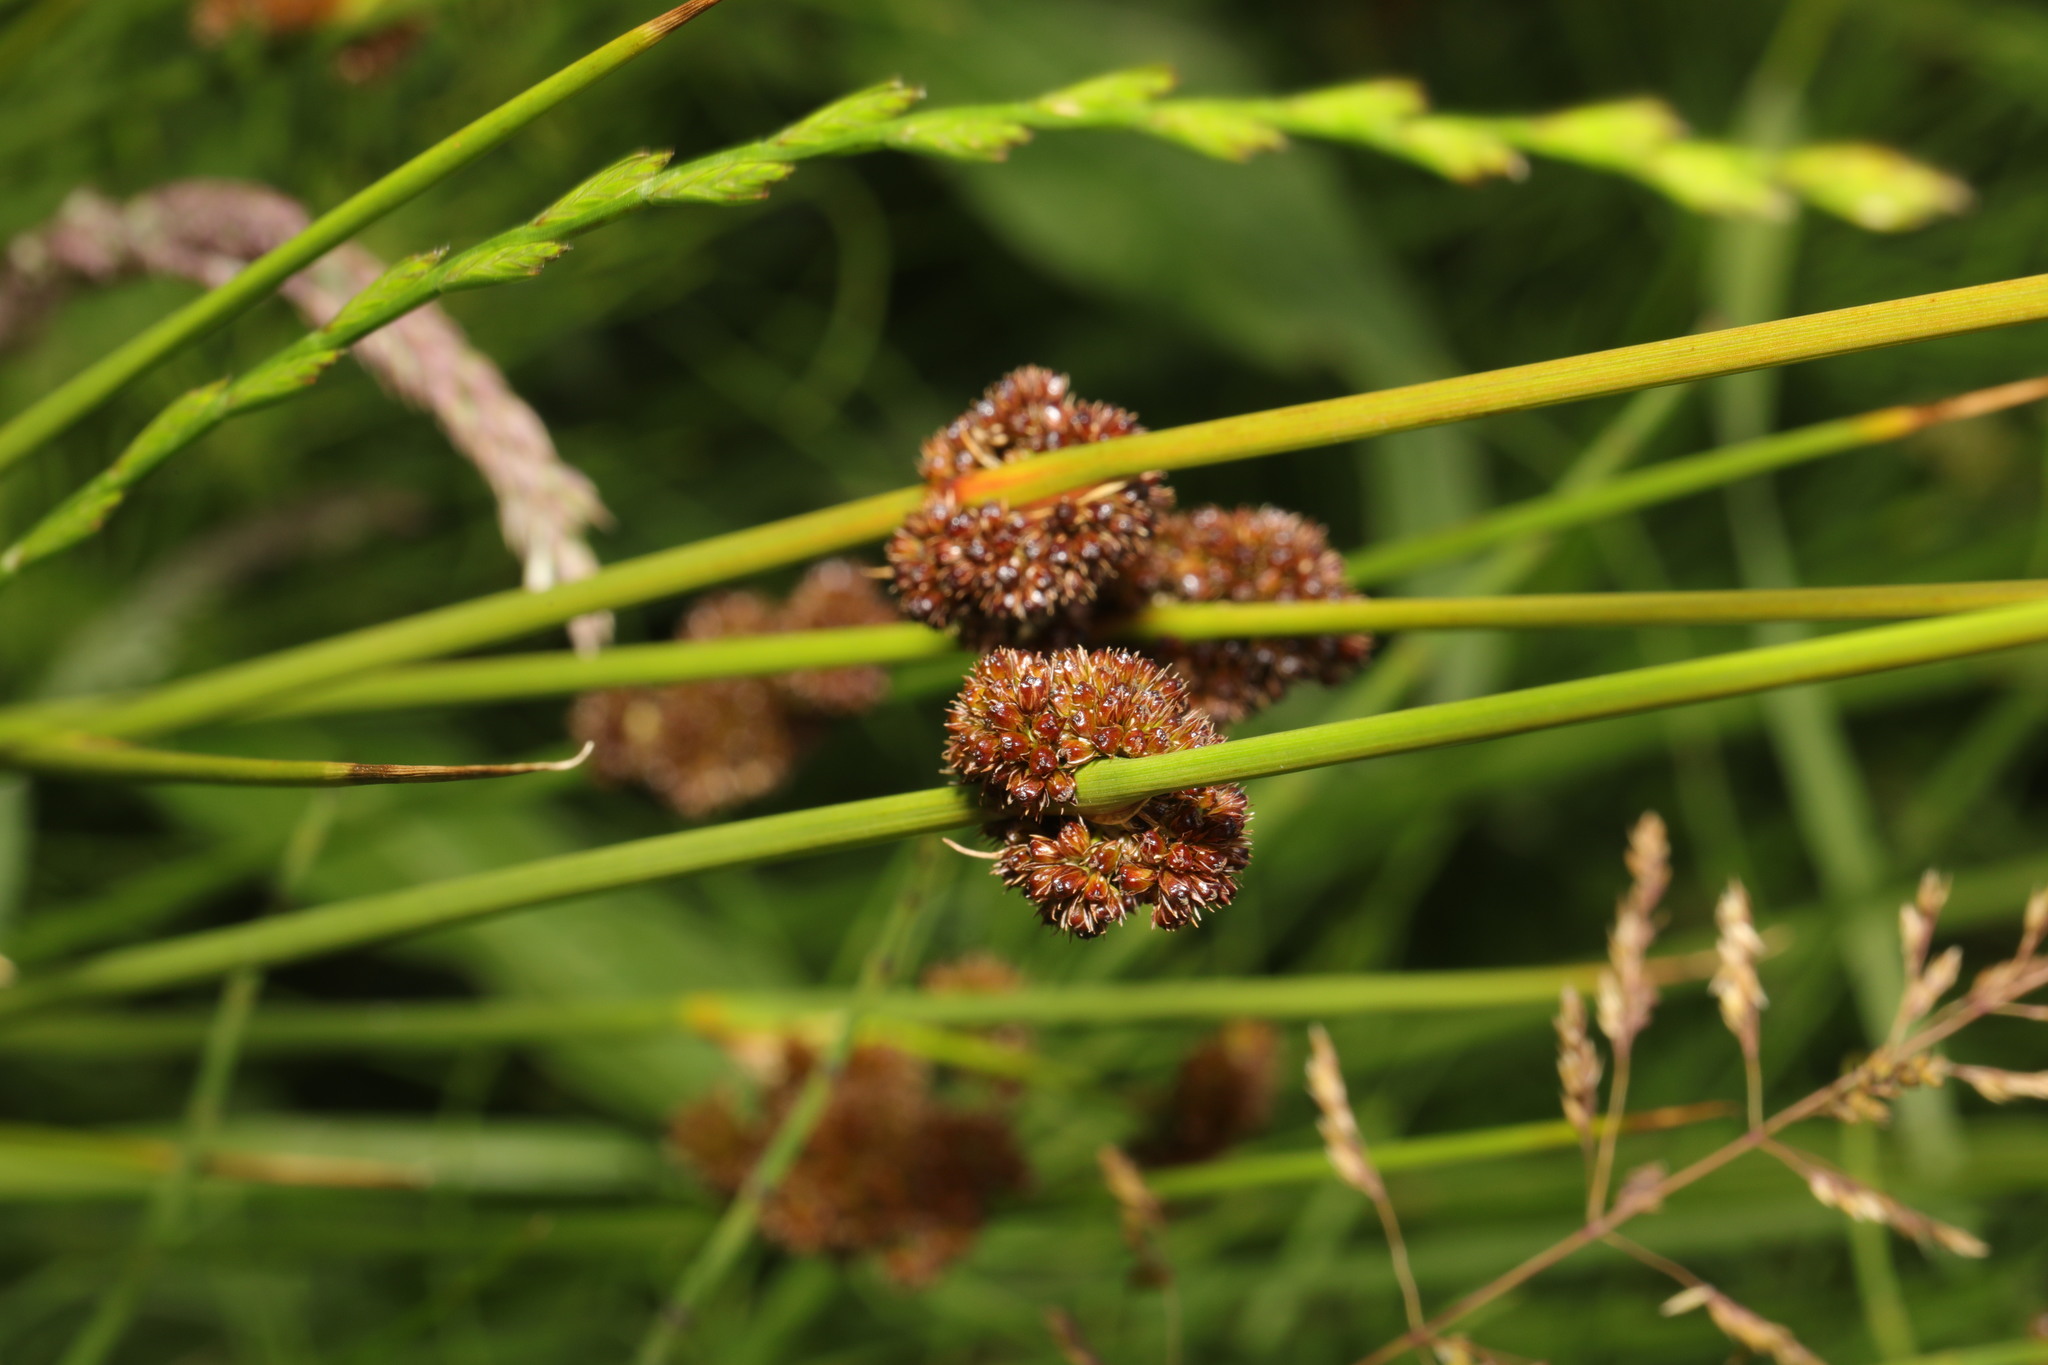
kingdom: Plantae
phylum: Tracheophyta
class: Liliopsida
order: Poales
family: Juncaceae
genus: Juncus
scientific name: Juncus conglomeratus
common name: Compact rush
